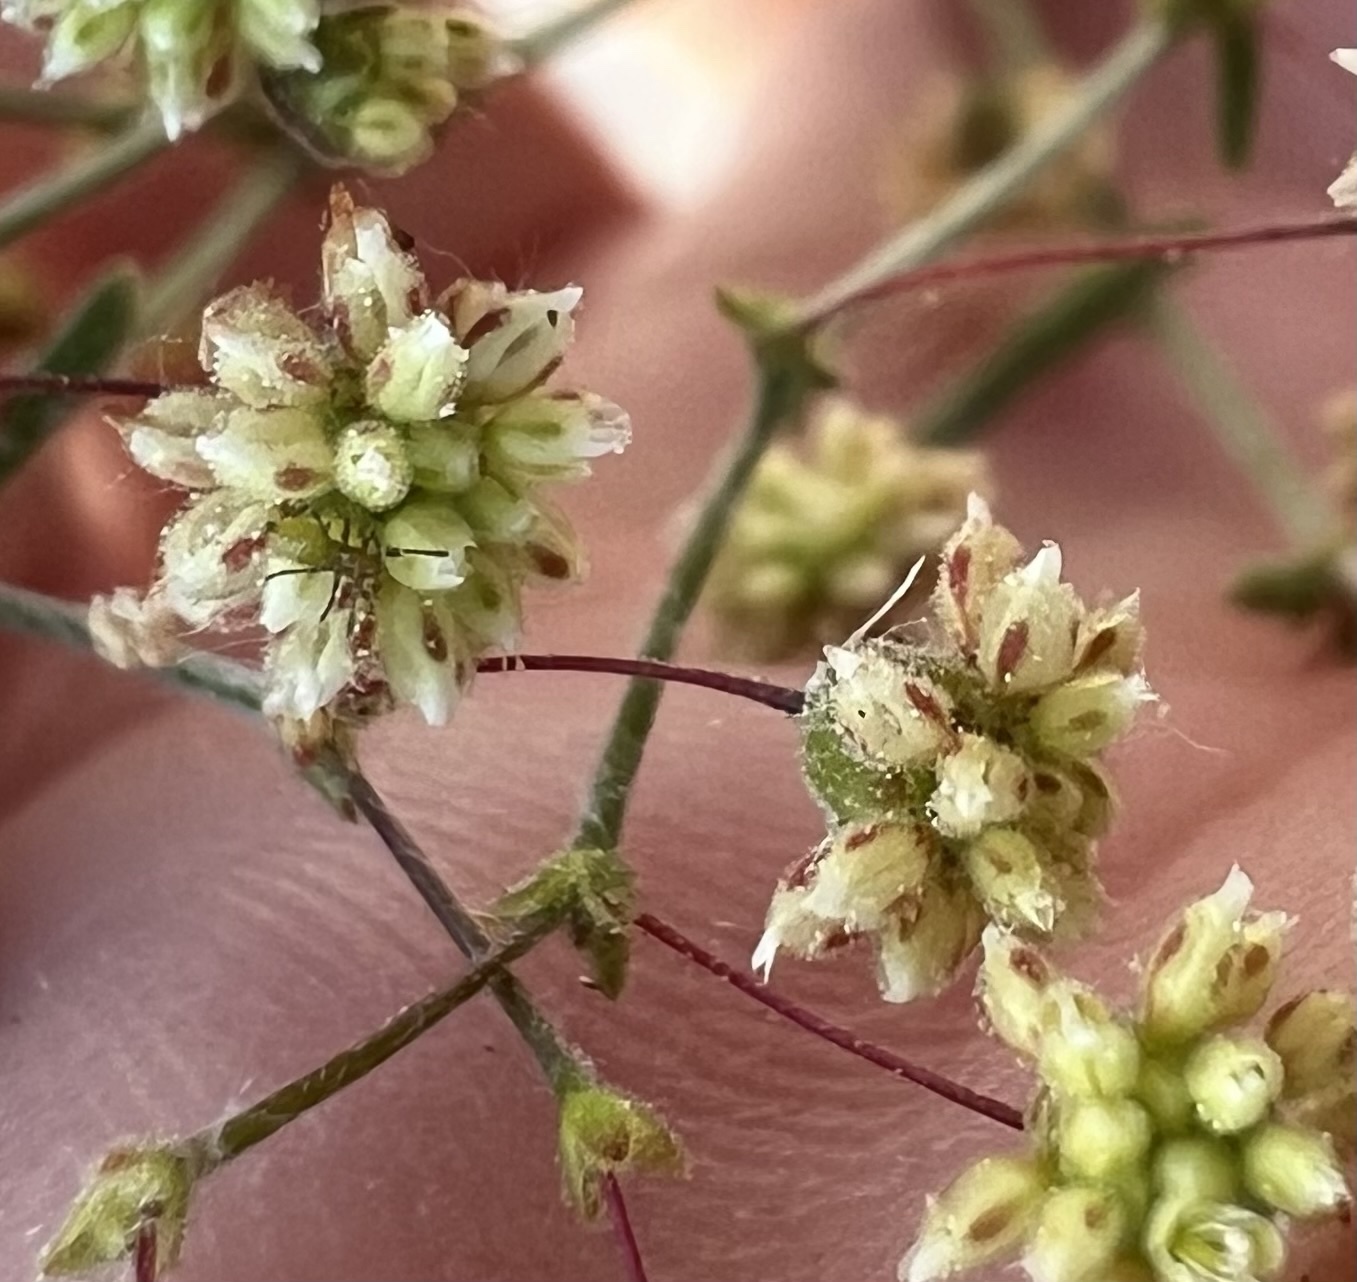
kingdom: Plantae
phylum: Tracheophyta
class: Magnoliopsida
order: Caryophyllales
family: Polygonaceae
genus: Eriogonum
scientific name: Eriogonum maculatum
